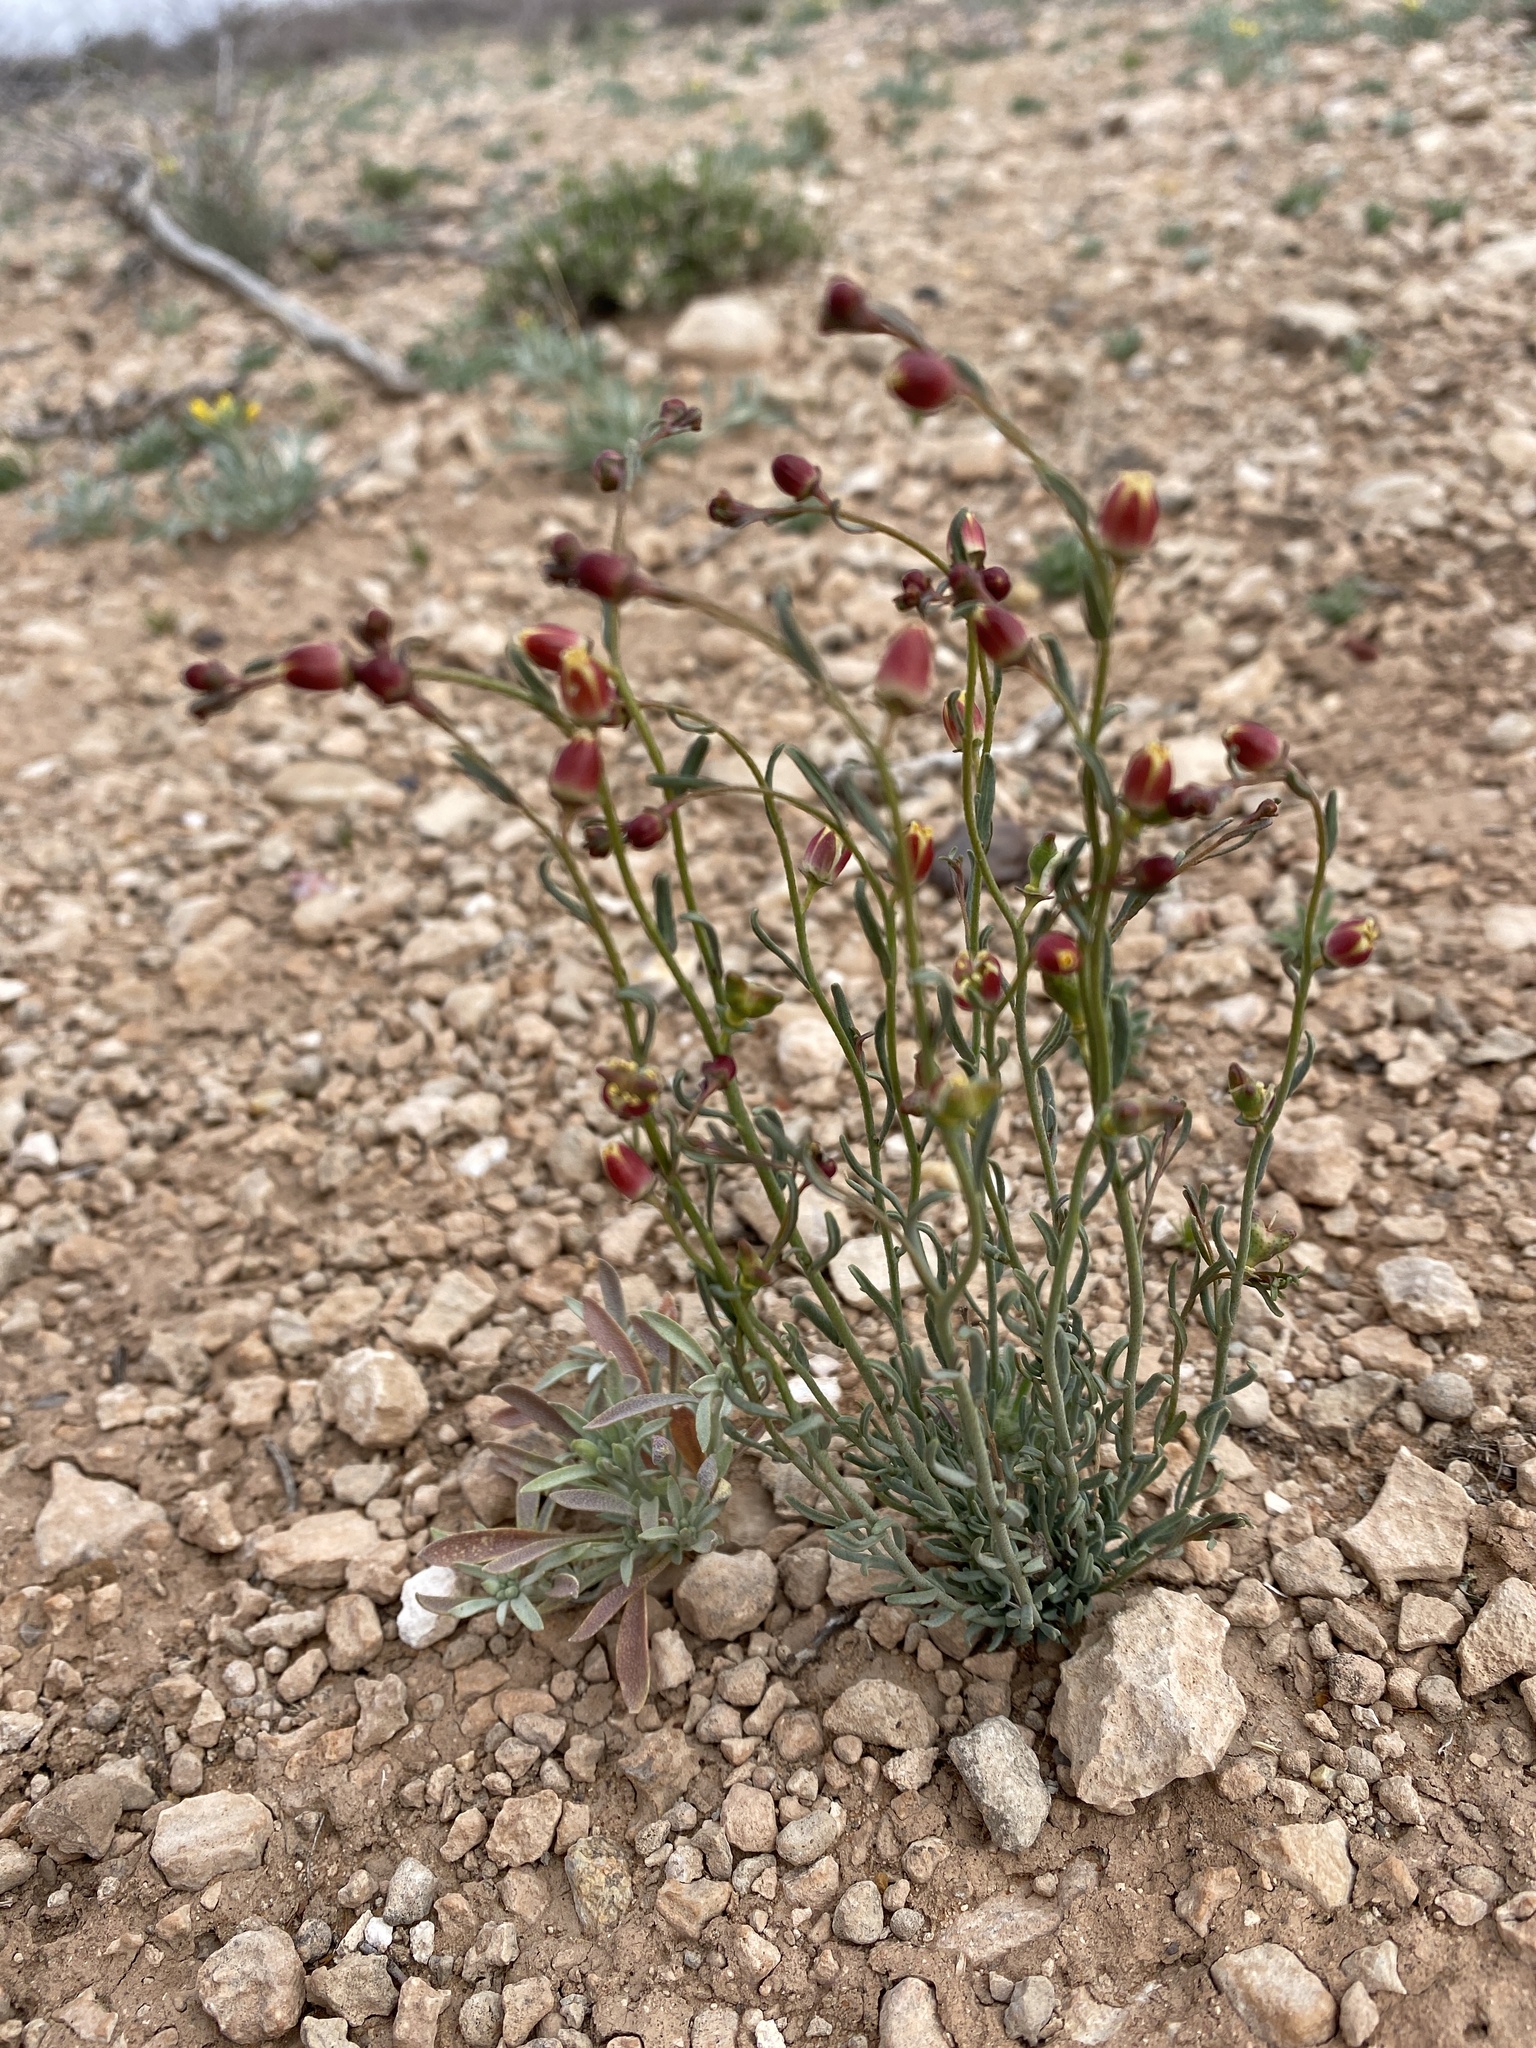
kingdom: Plantae
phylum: Tracheophyta
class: Magnoliopsida
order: Sapindales
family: Rutaceae
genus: Thamnosma
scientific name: Thamnosma texana
